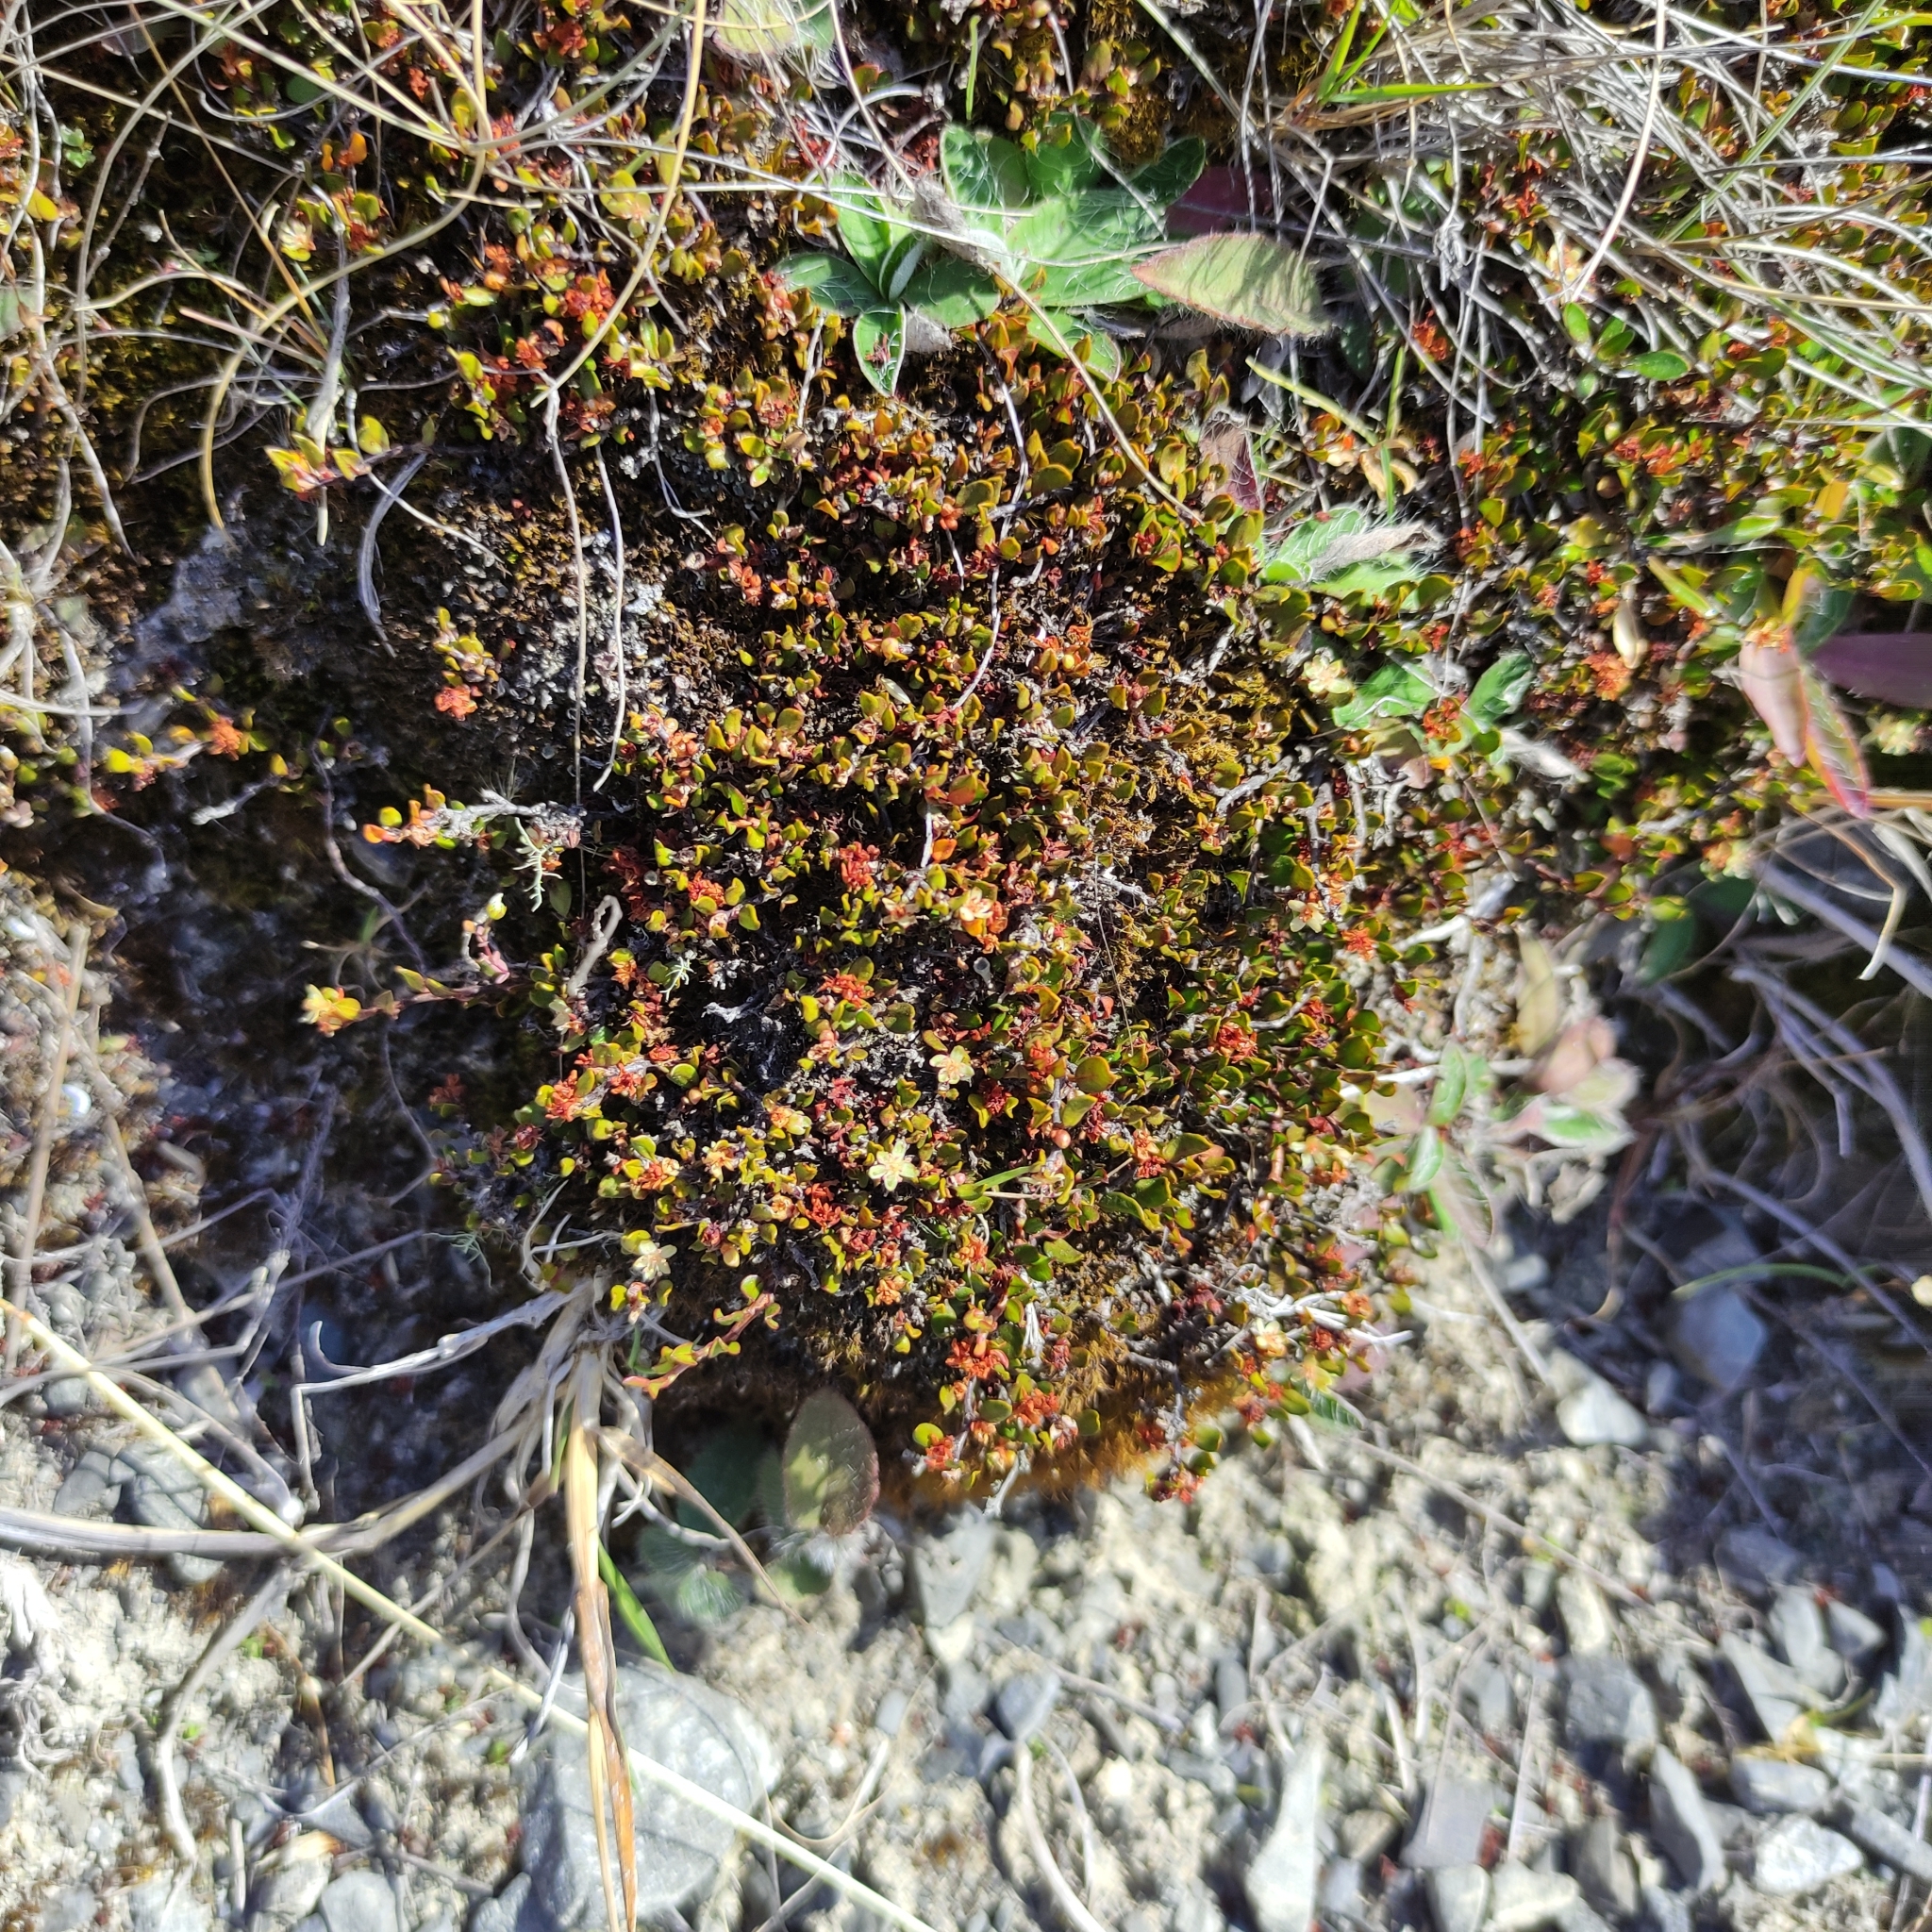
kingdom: Plantae
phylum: Tracheophyta
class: Magnoliopsida
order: Caryophyllales
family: Polygonaceae
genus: Muehlenbeckia
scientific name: Muehlenbeckia axillaris
